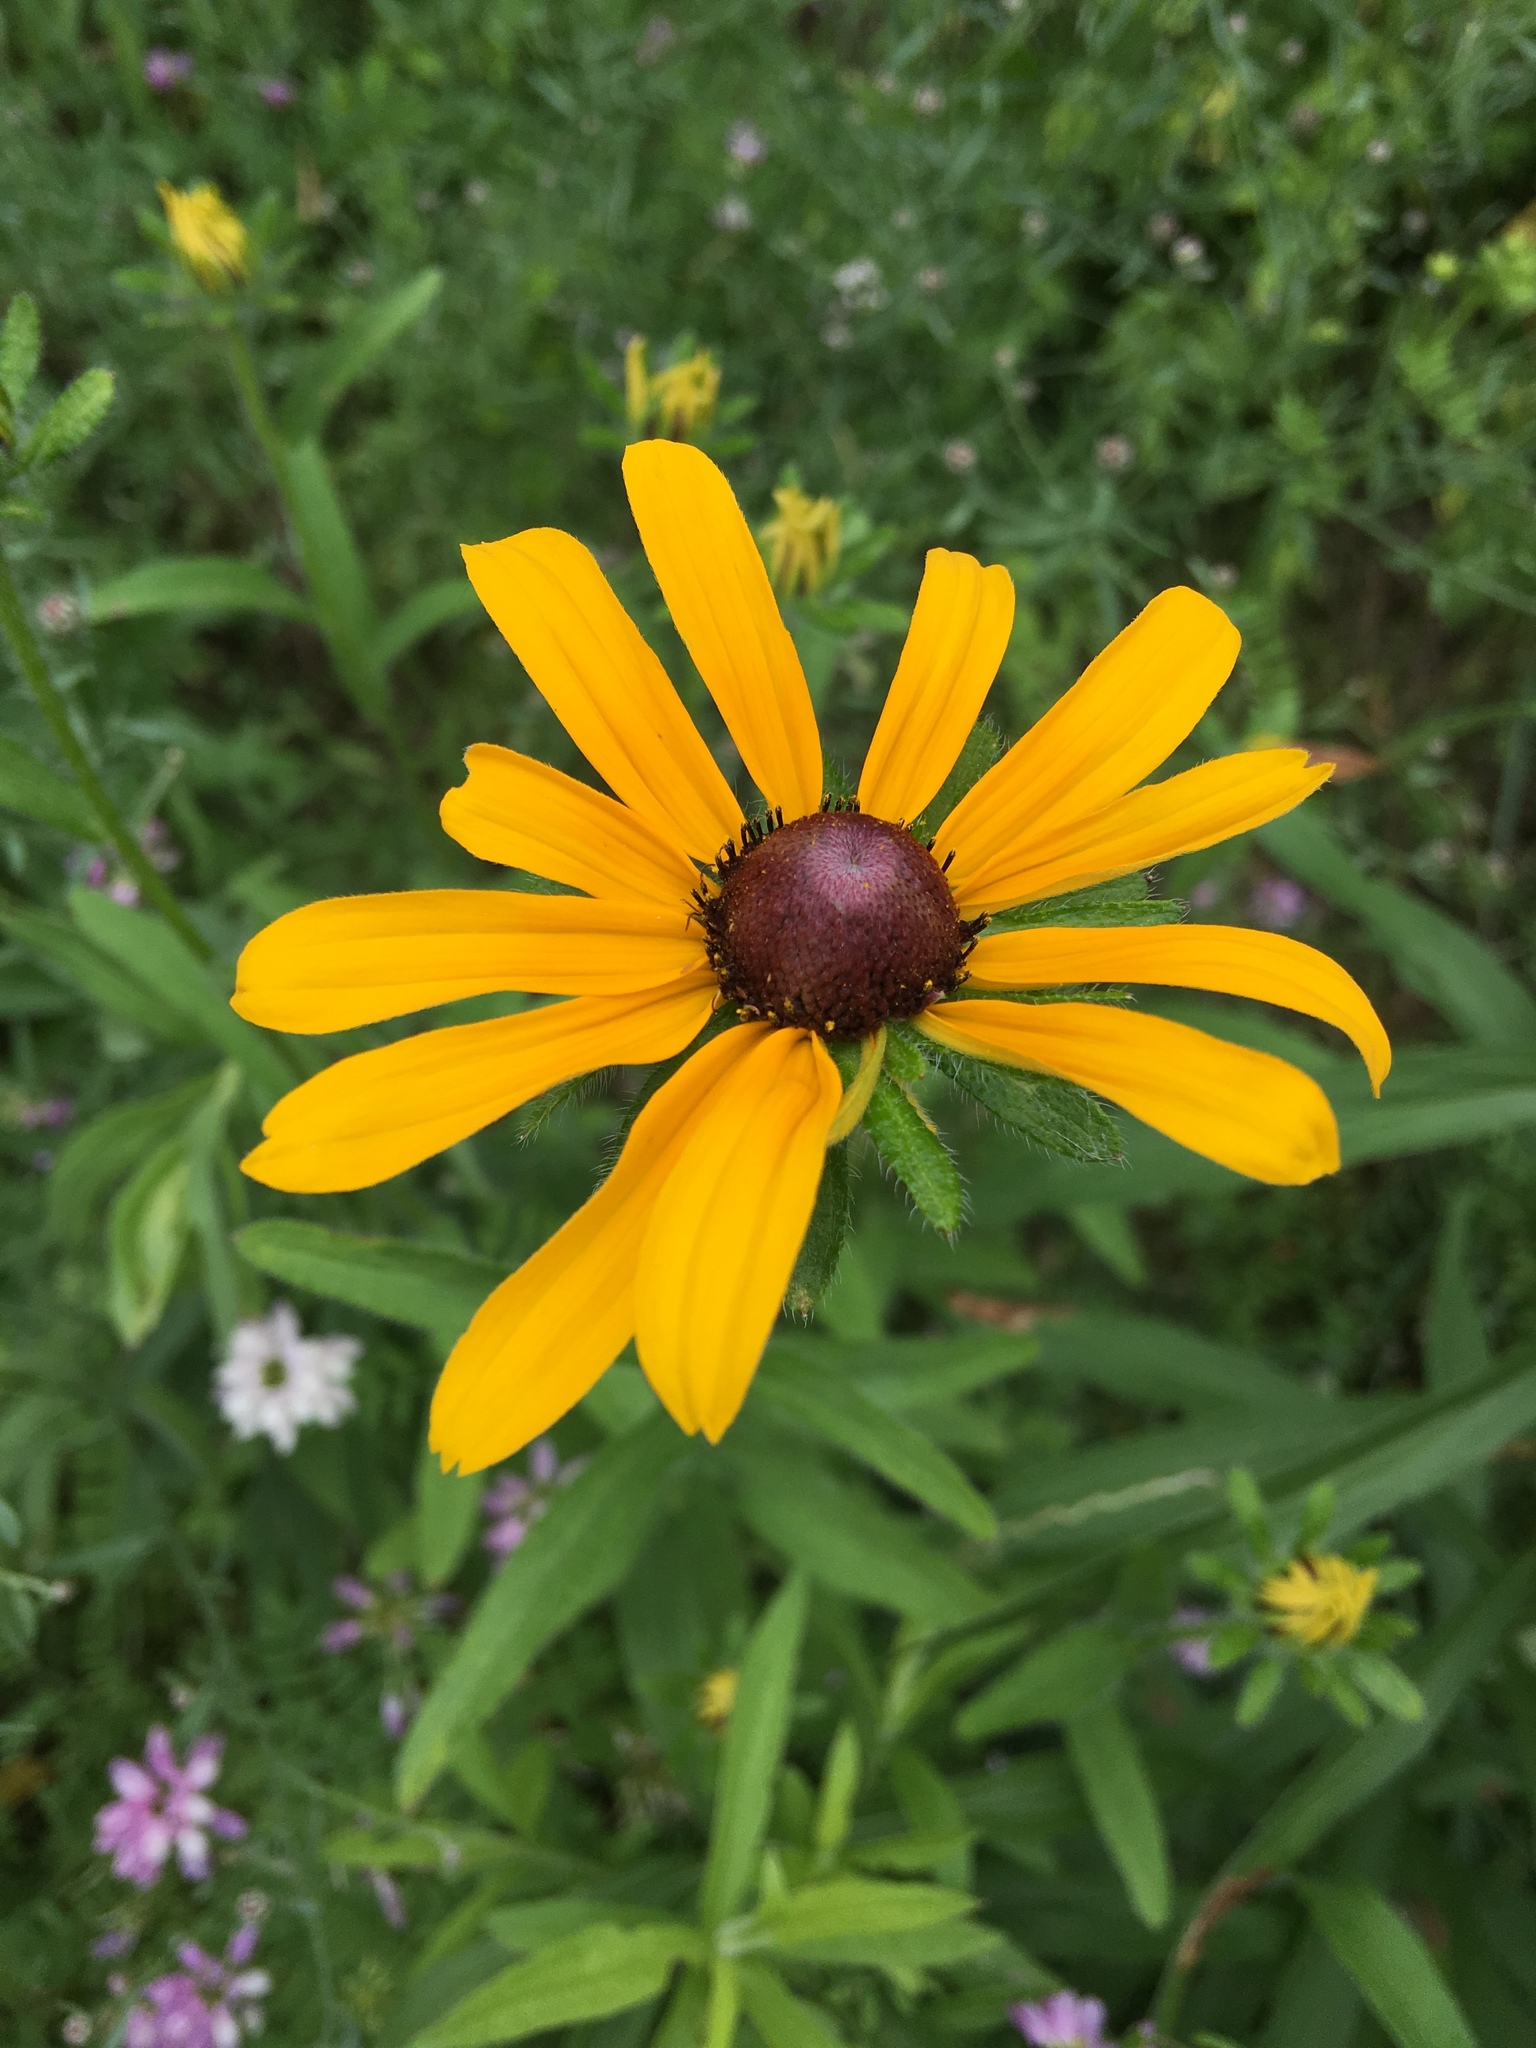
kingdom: Plantae
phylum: Tracheophyta
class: Magnoliopsida
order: Asterales
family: Asteraceae
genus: Rudbeckia
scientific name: Rudbeckia hirta
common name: Black-eyed-susan
